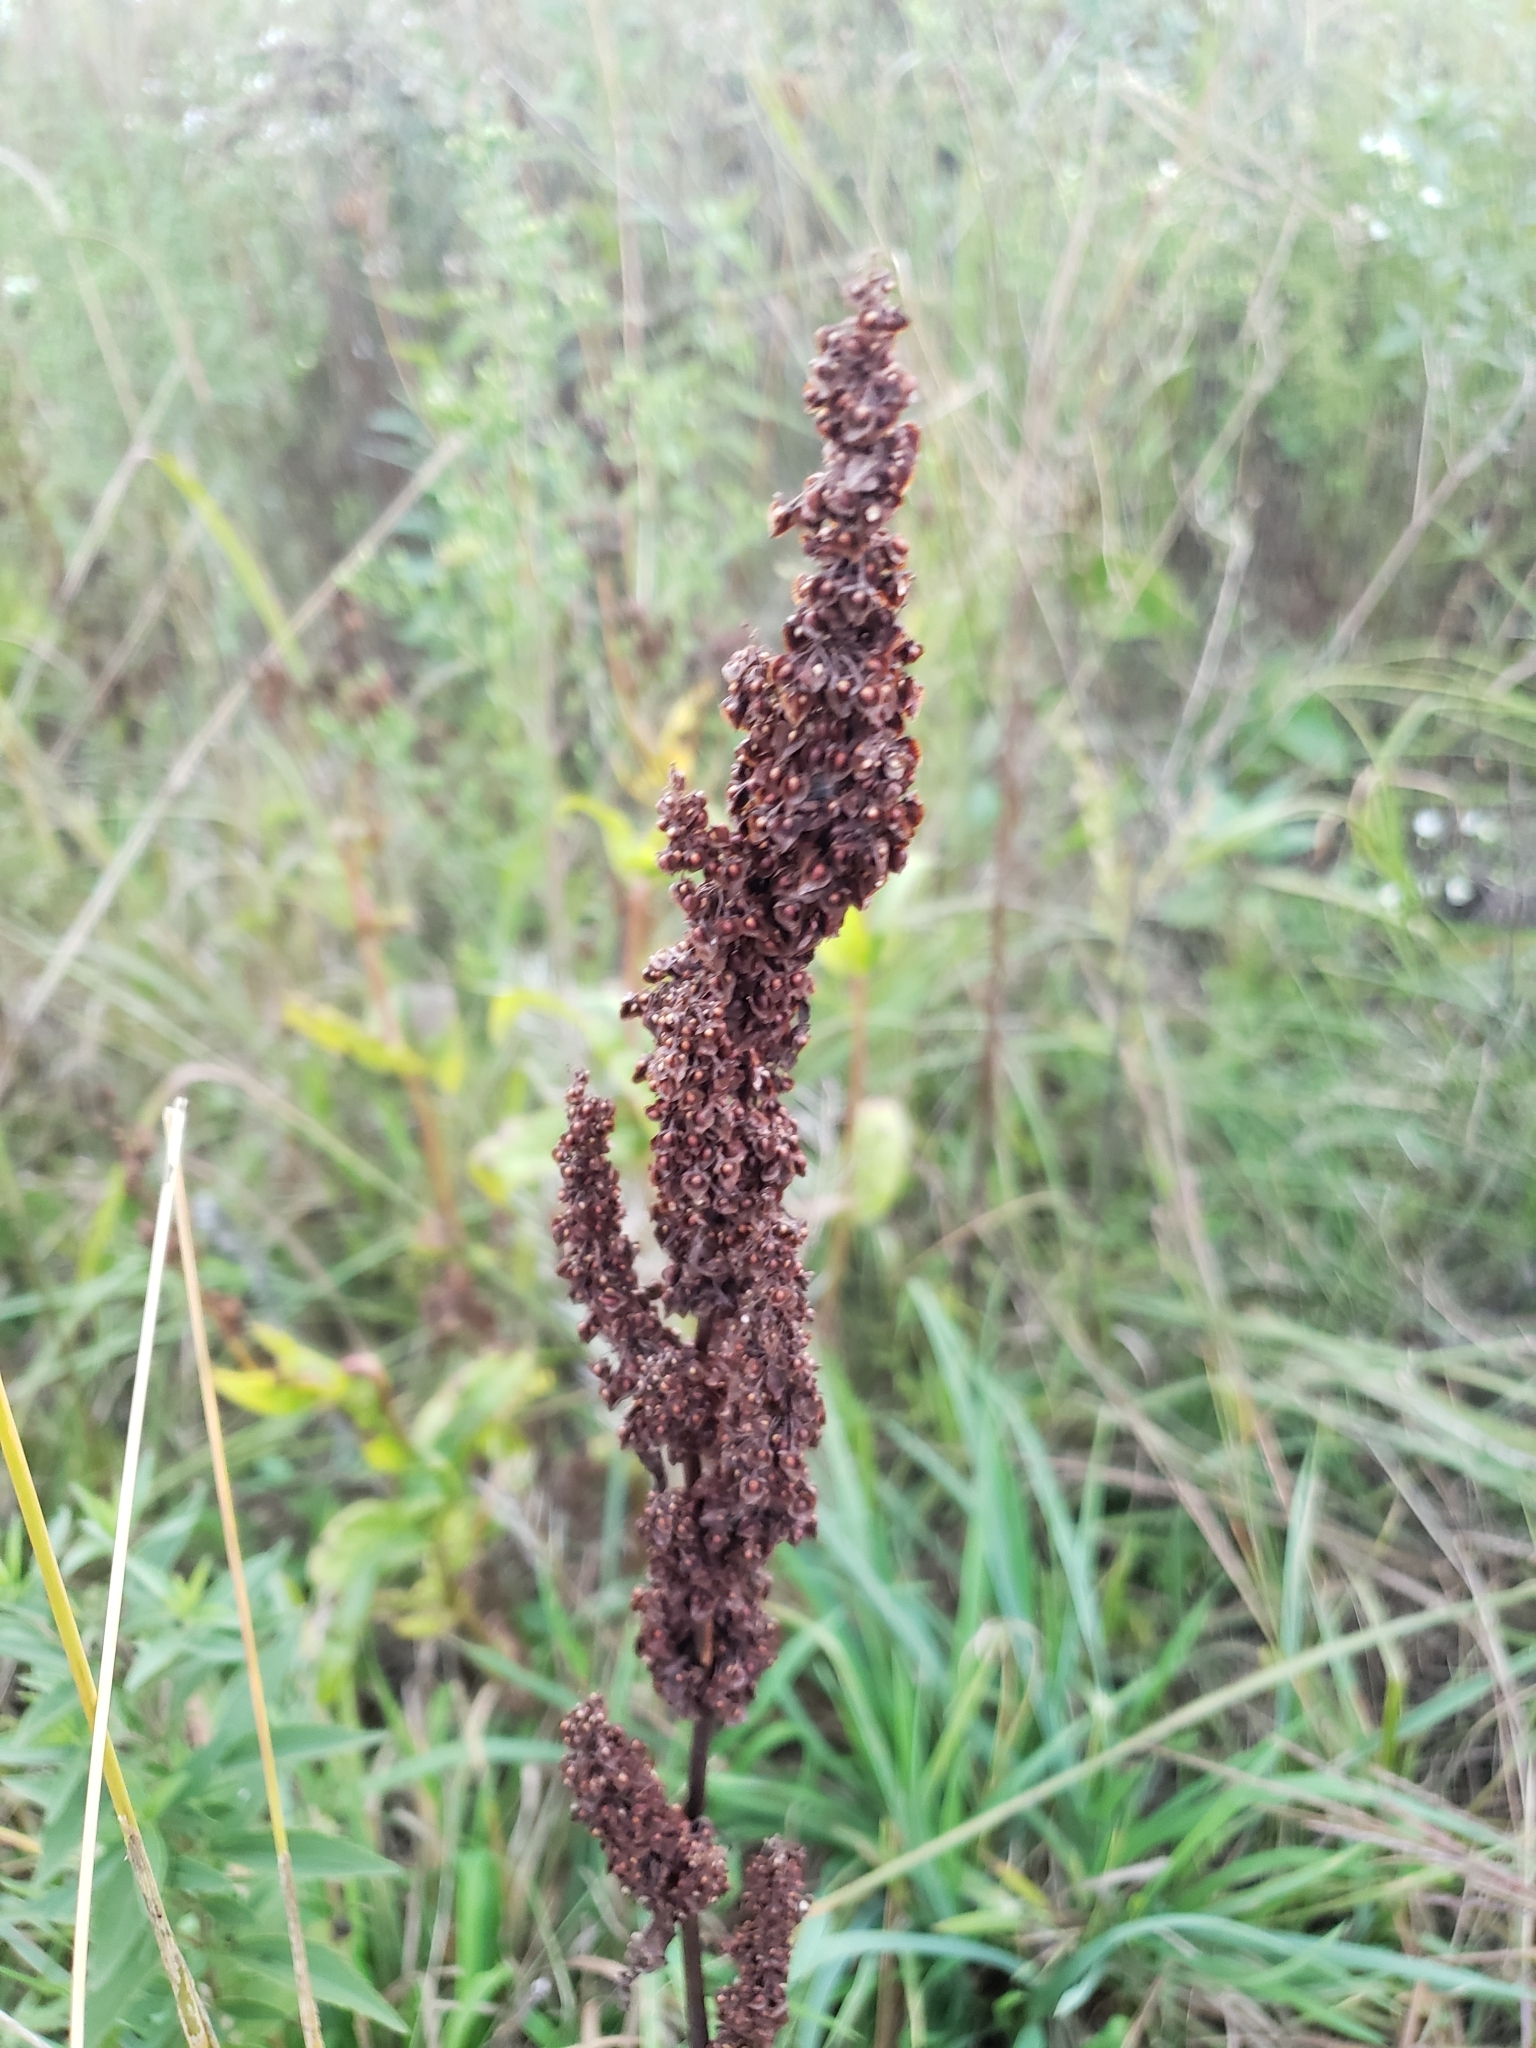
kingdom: Plantae
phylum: Tracheophyta
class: Magnoliopsida
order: Caryophyllales
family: Polygonaceae
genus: Rumex
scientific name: Rumex crispus
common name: Curled dock
